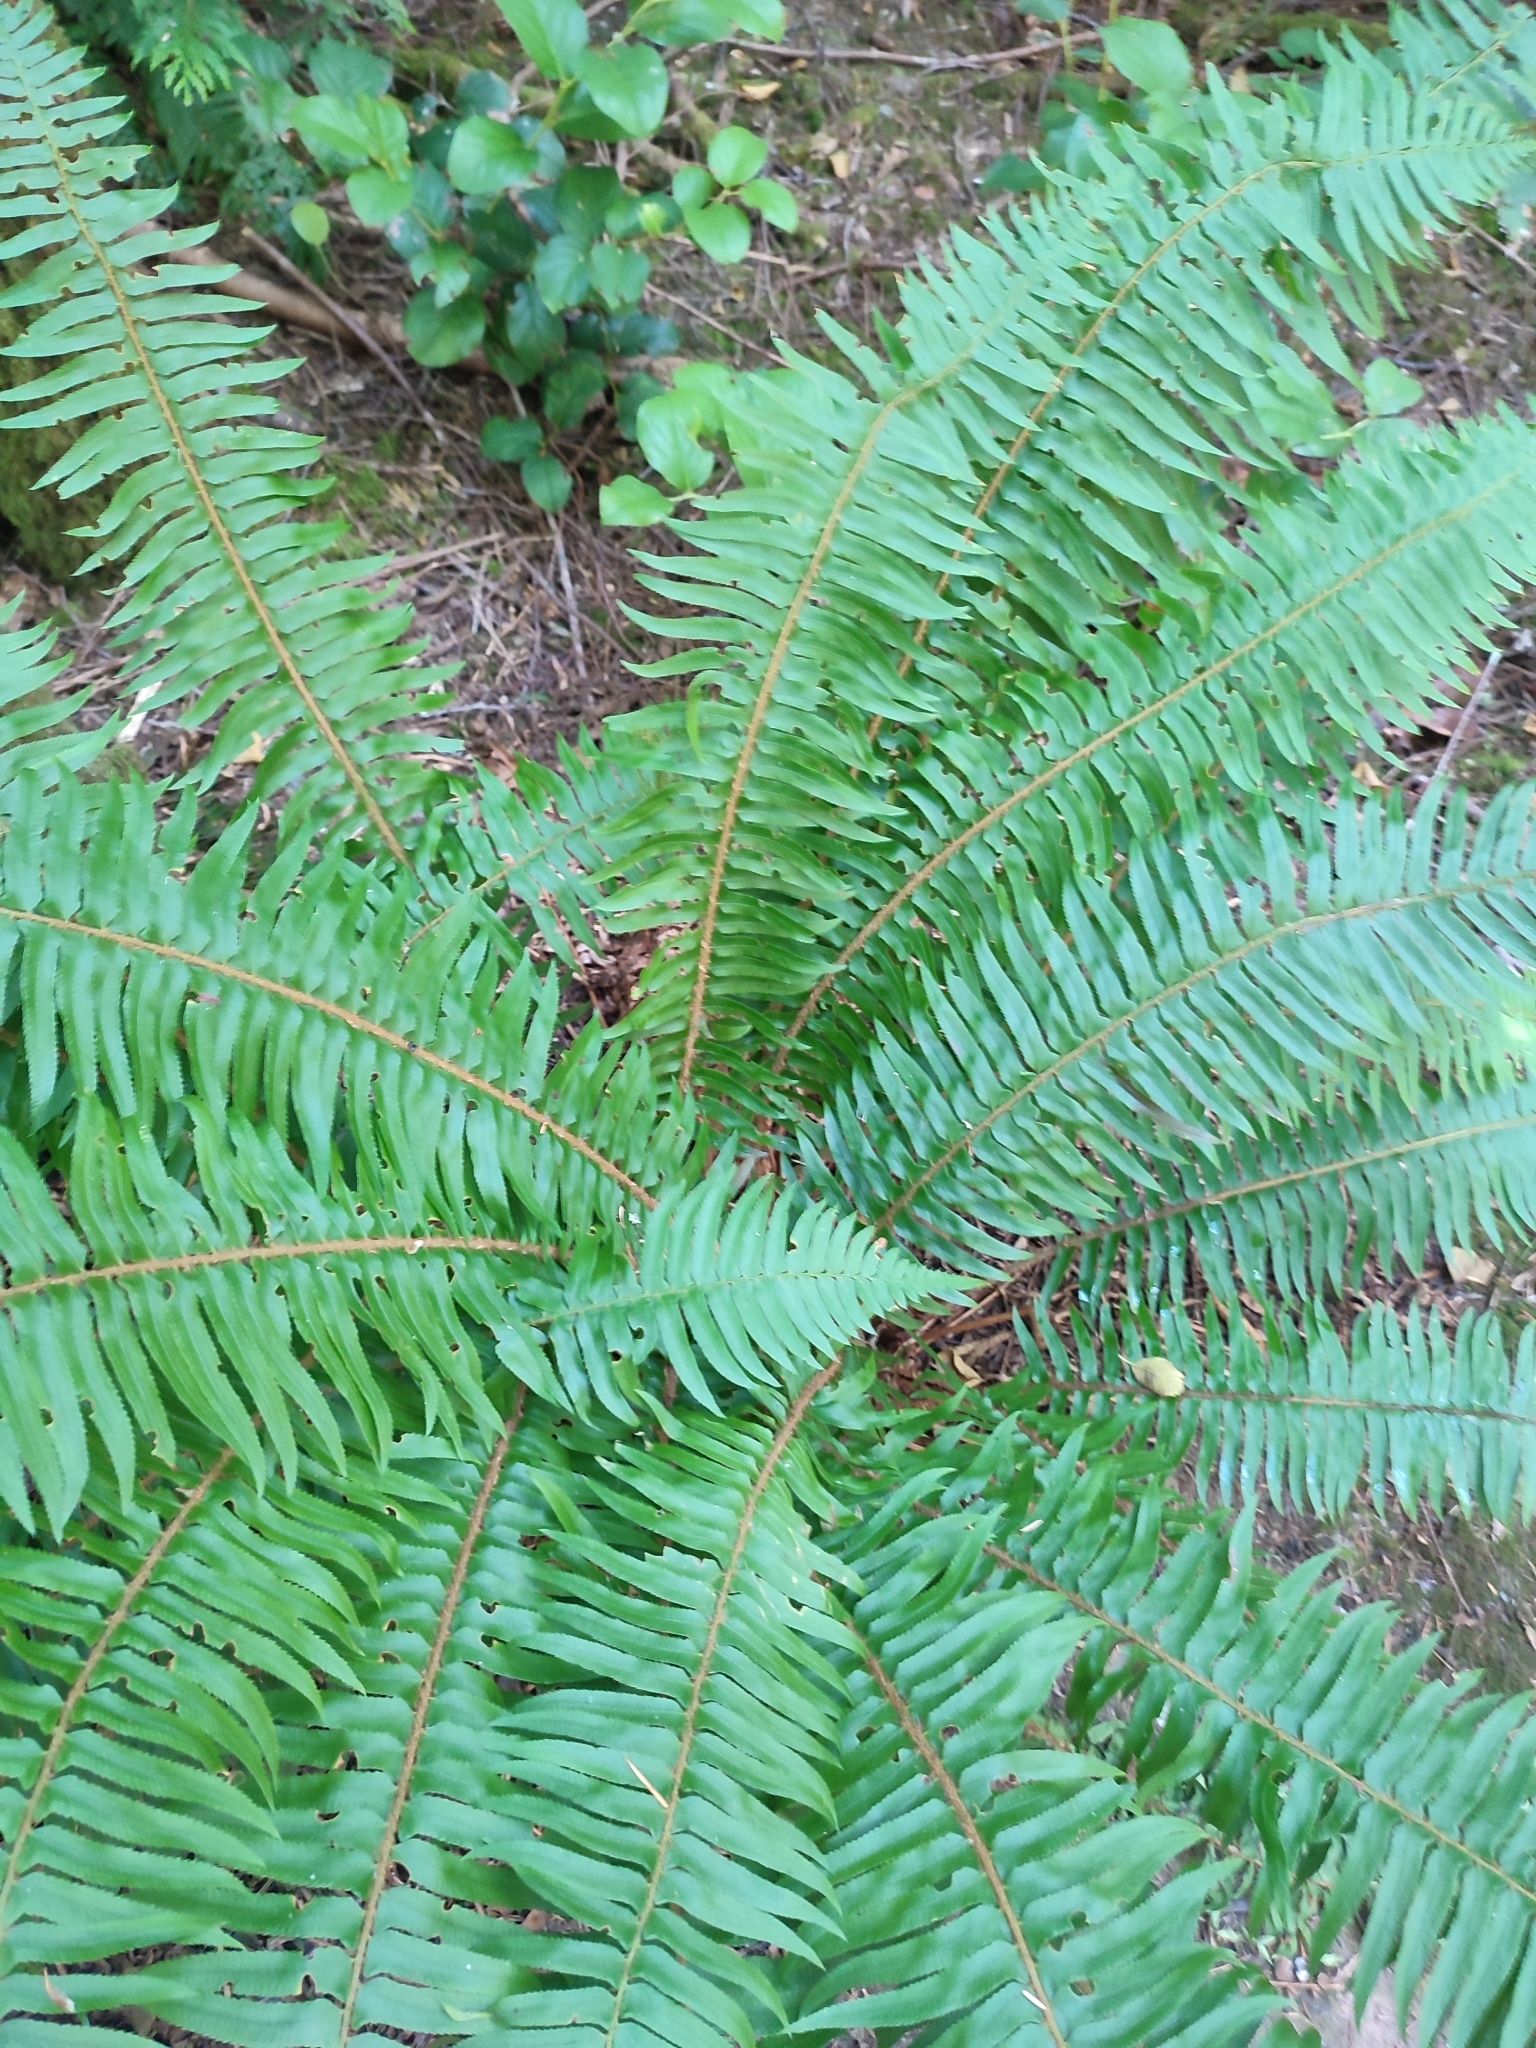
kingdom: Plantae
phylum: Tracheophyta
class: Polypodiopsida
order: Polypodiales
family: Dryopteridaceae
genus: Polystichum
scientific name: Polystichum munitum
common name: Western sword-fern
